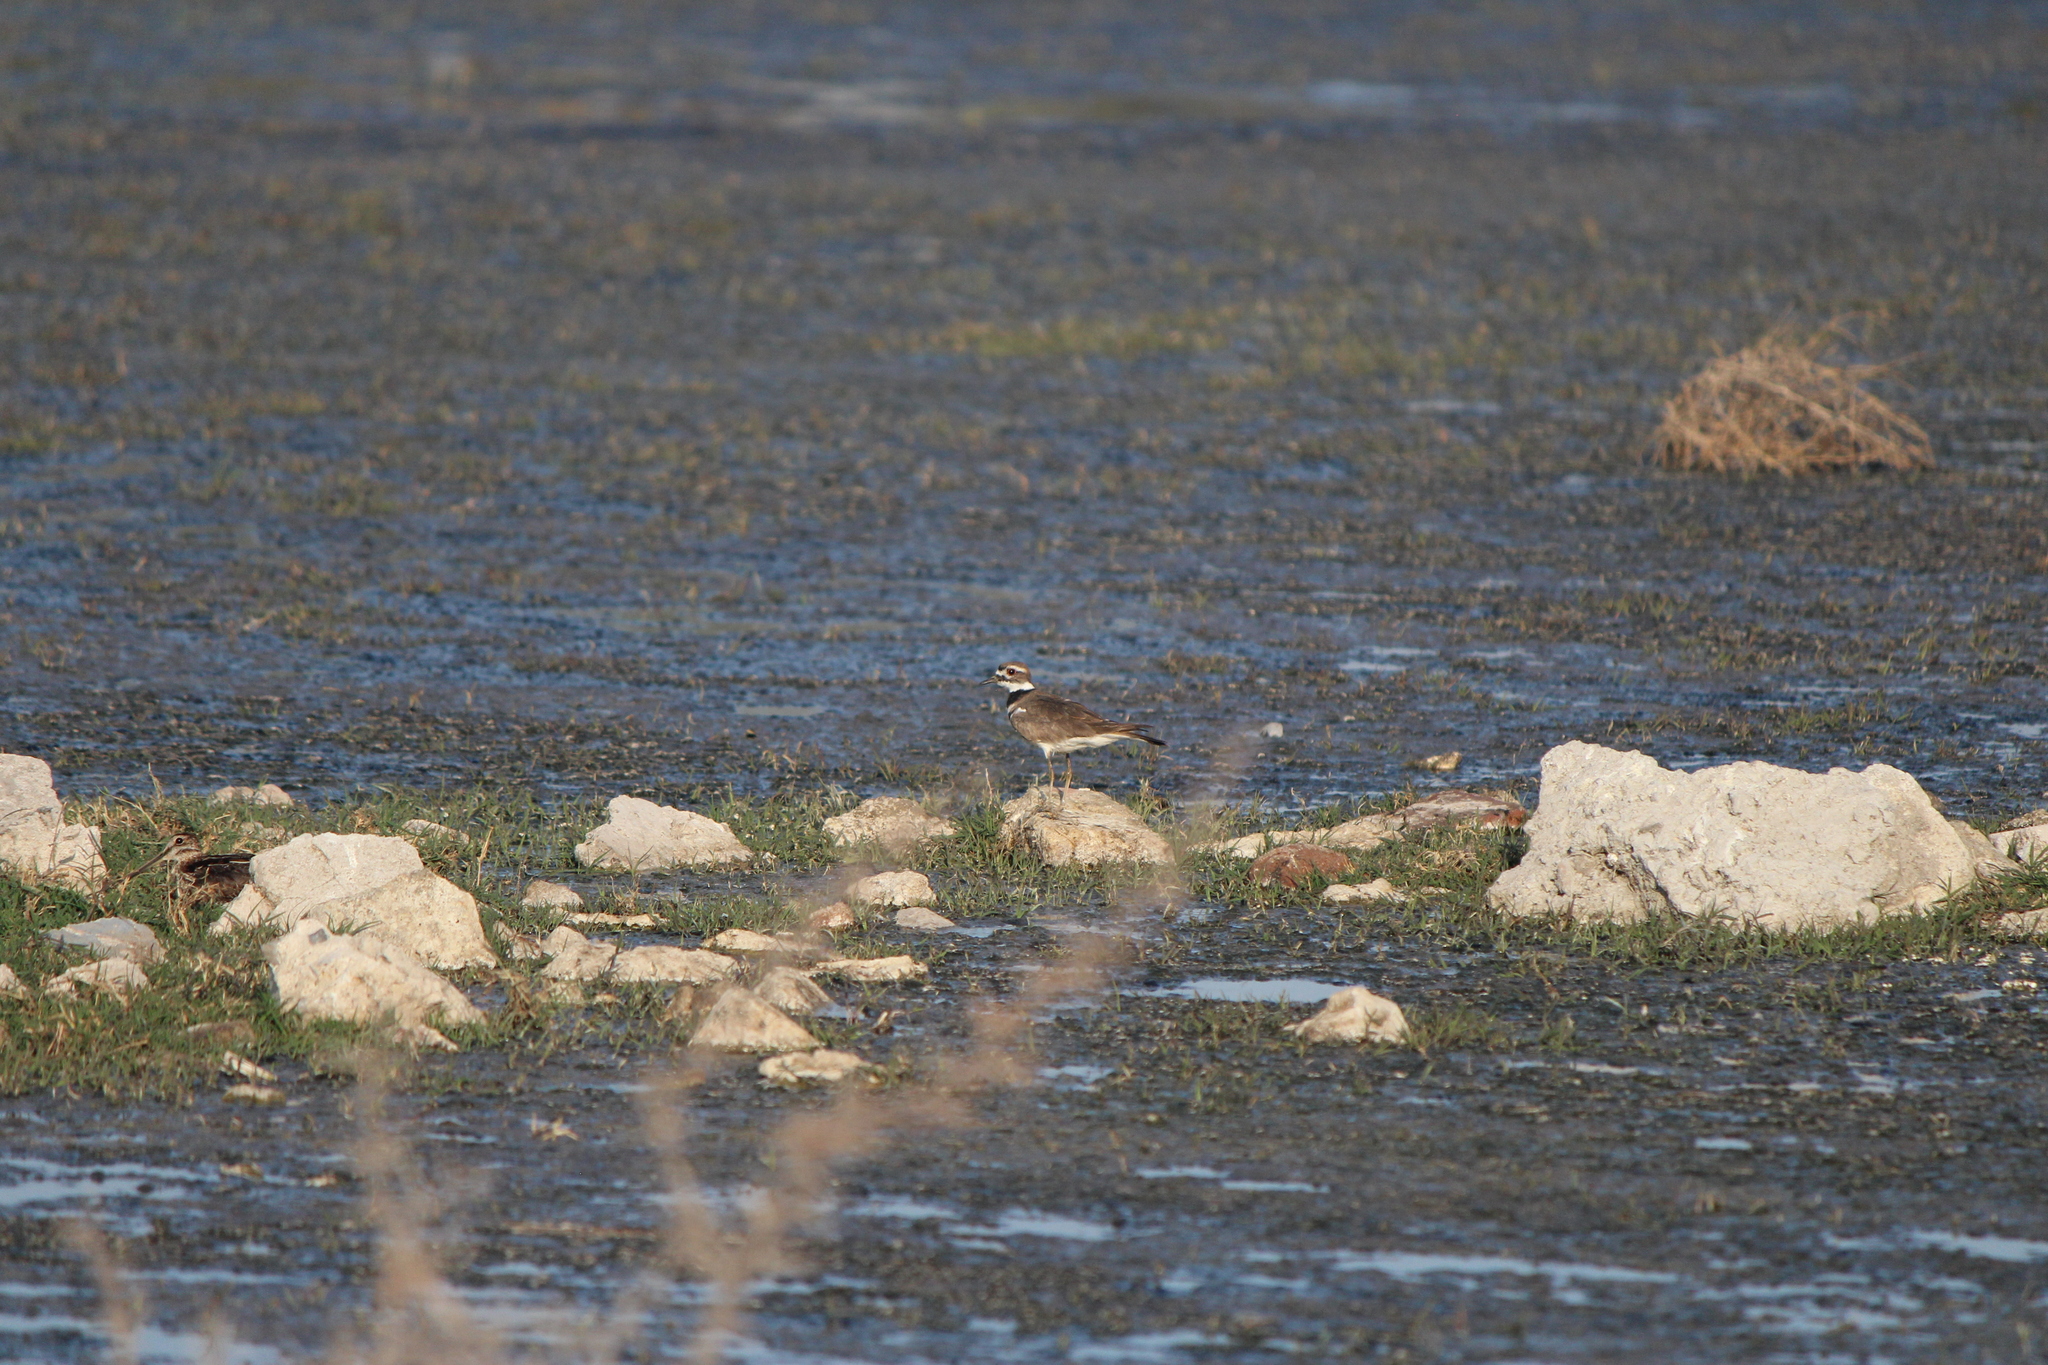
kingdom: Animalia
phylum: Chordata
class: Aves
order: Charadriiformes
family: Charadriidae
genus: Charadrius
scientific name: Charadrius vociferus
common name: Killdeer
